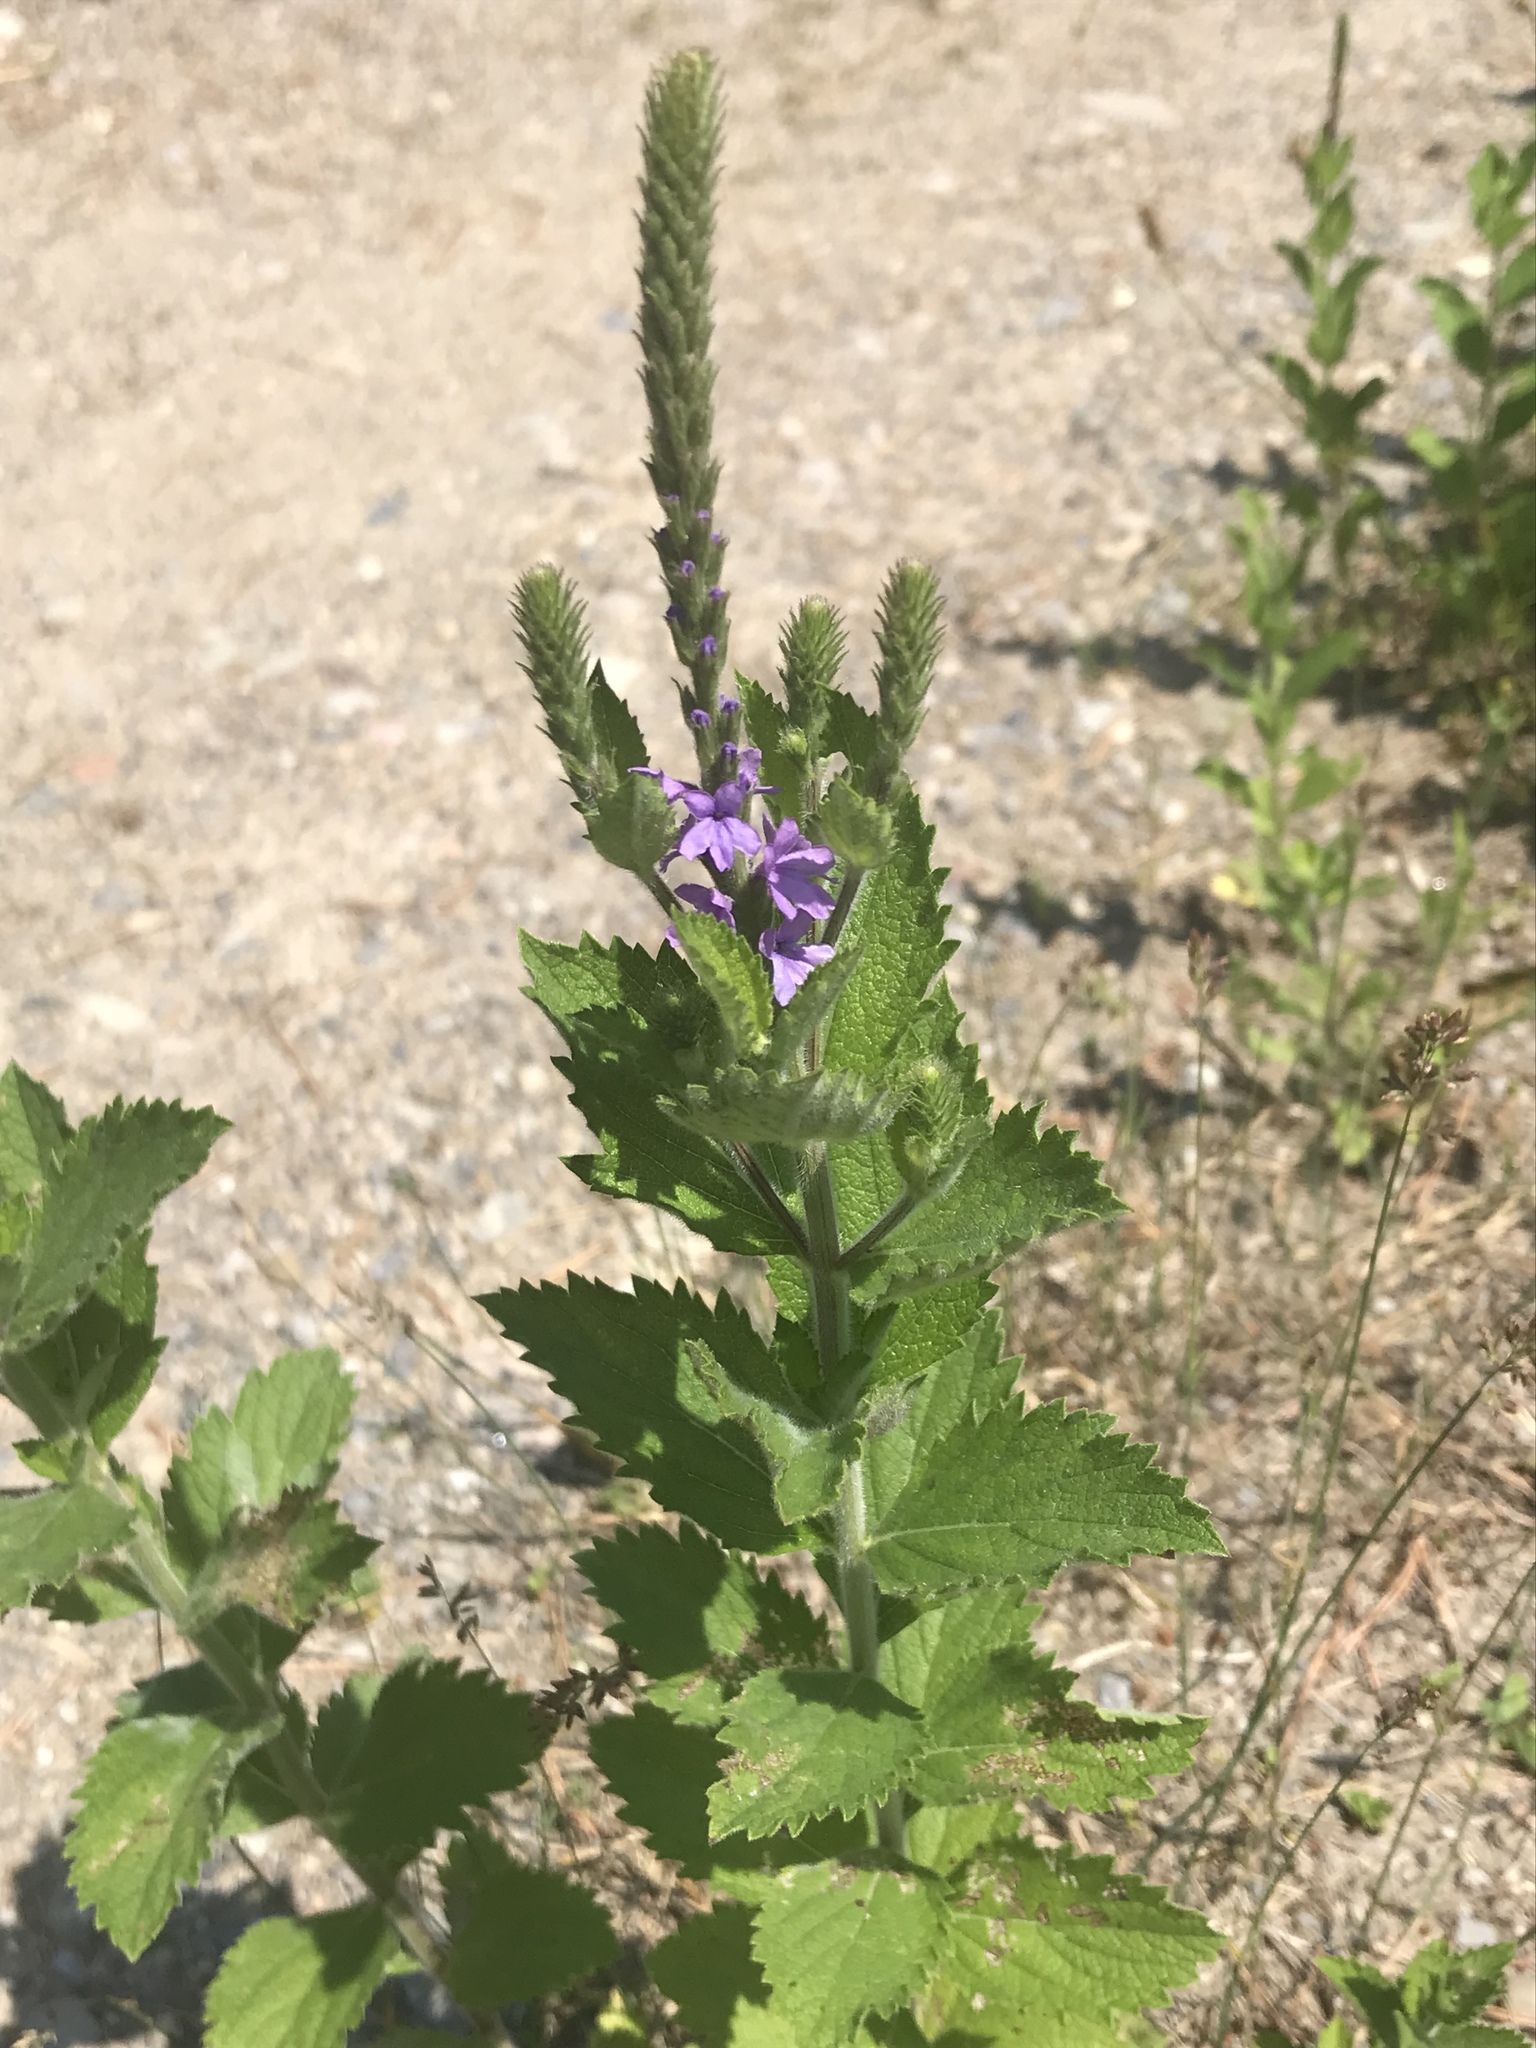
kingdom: Plantae
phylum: Tracheophyta
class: Magnoliopsida
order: Lamiales
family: Verbenaceae
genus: Verbena
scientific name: Verbena stricta
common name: Hoary vervain
